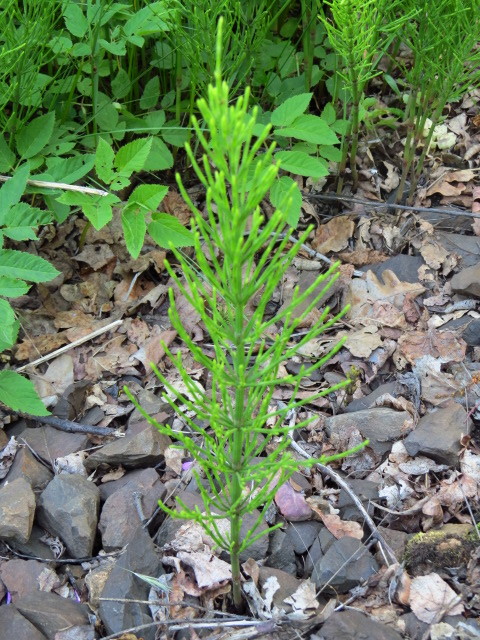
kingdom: Plantae
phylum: Tracheophyta
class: Polypodiopsida
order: Equisetales
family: Equisetaceae
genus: Equisetum
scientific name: Equisetum arvense
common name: Field horsetail
